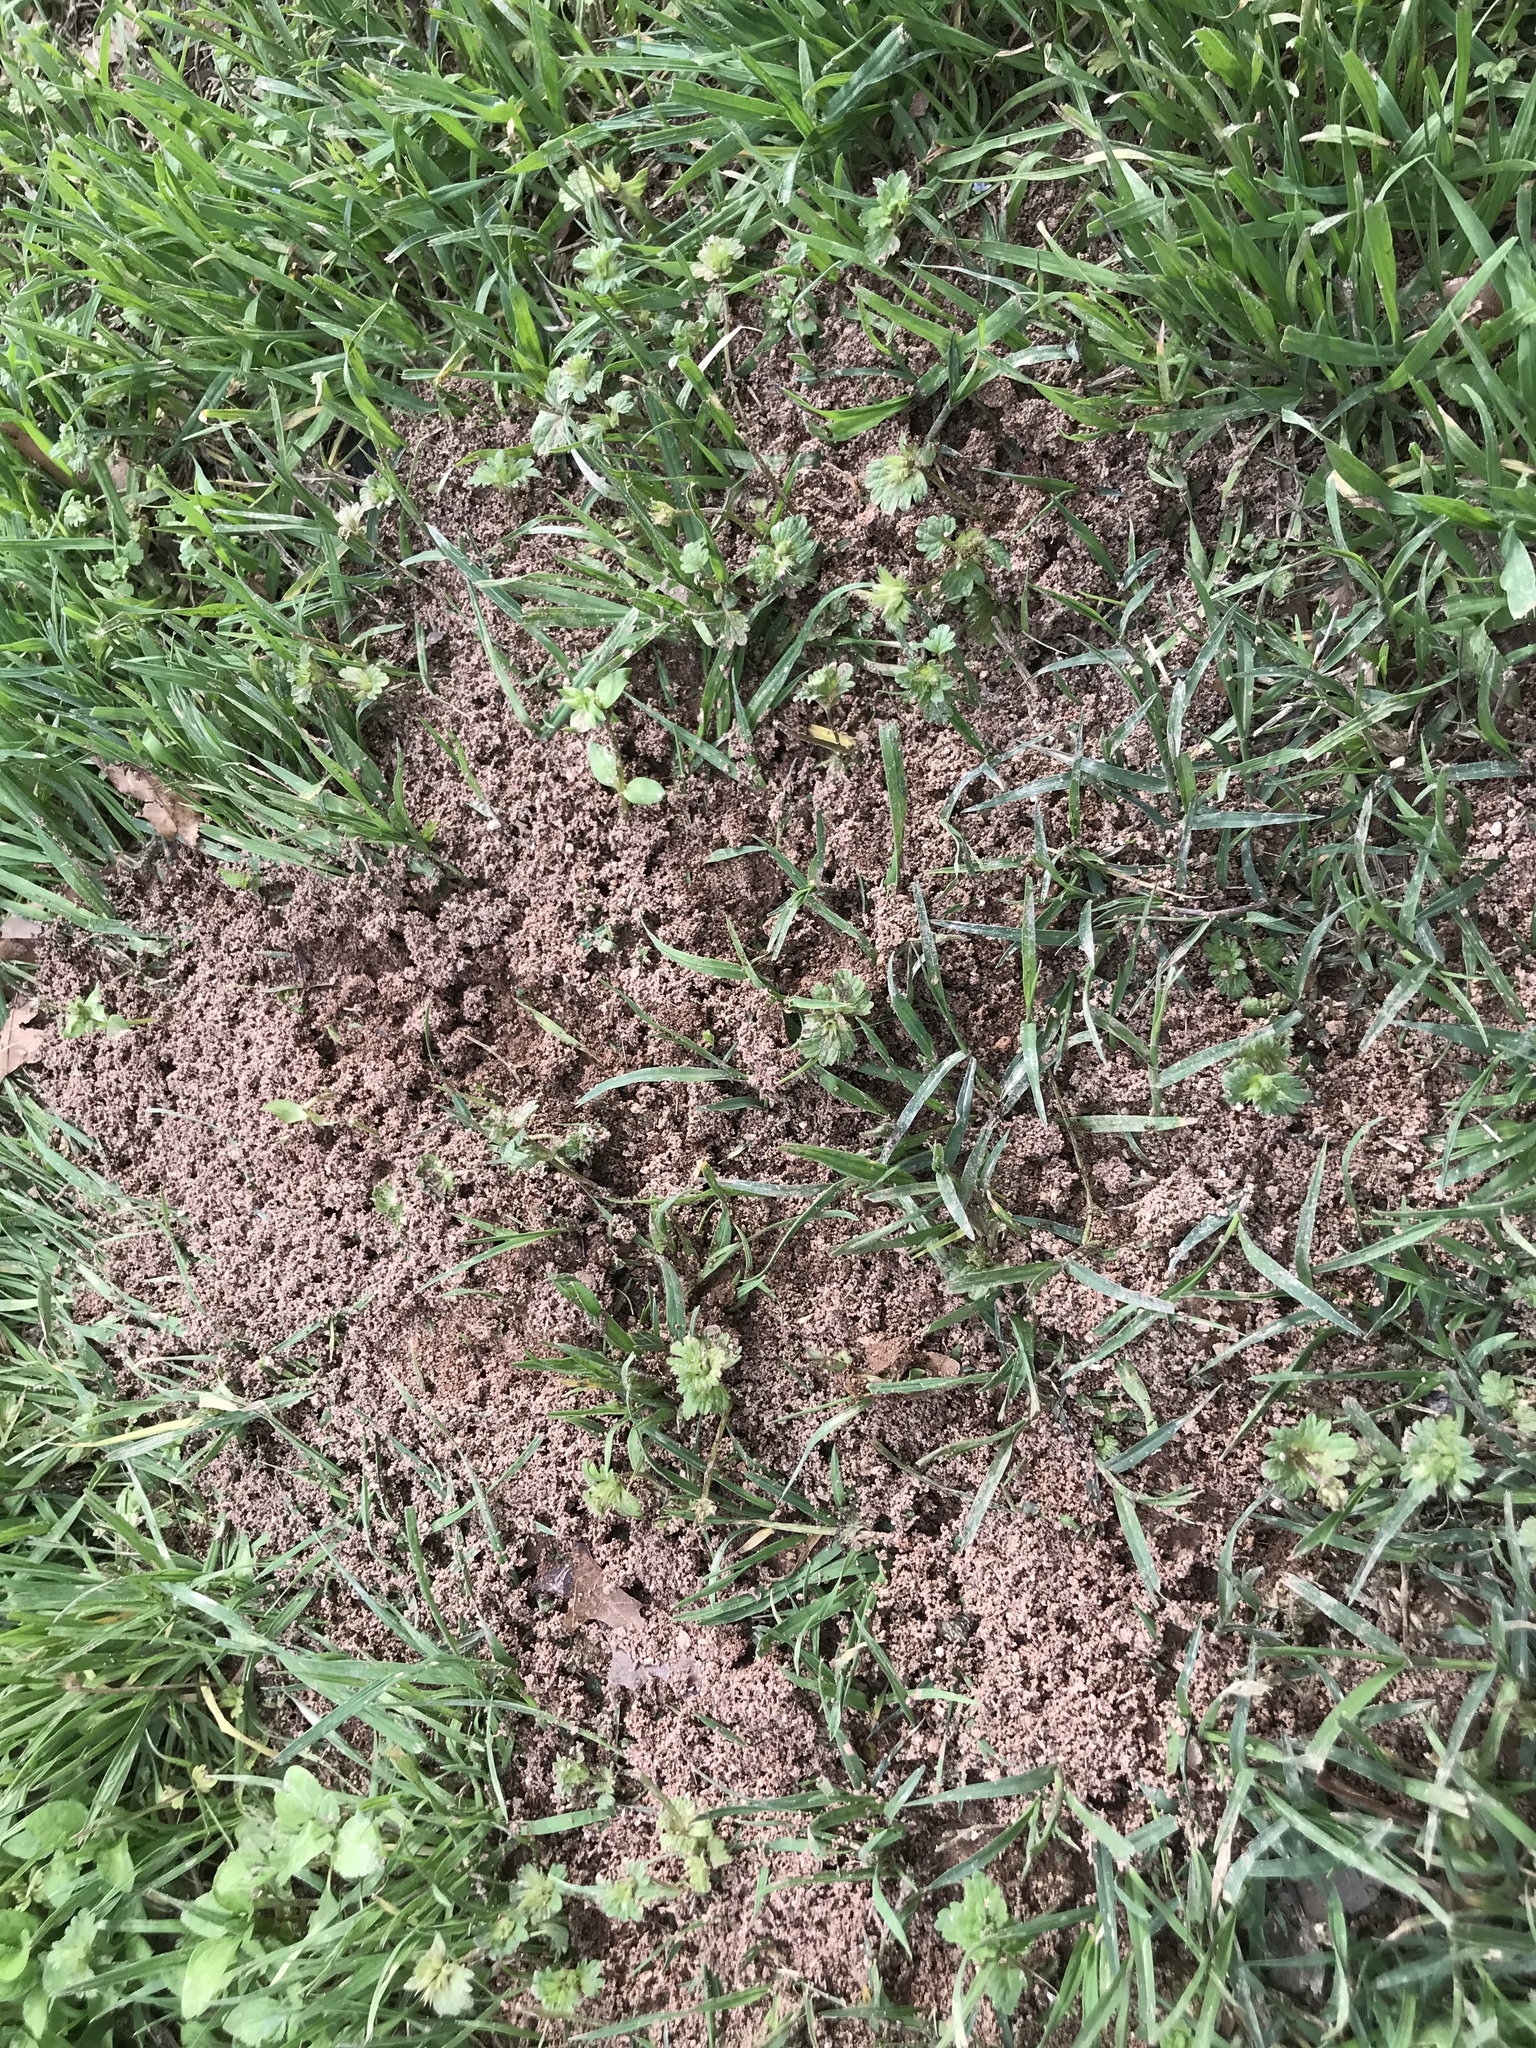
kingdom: Animalia
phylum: Arthropoda
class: Insecta
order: Hymenoptera
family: Formicidae
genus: Solenopsis
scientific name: Solenopsis invicta
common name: Red imported fire ant
